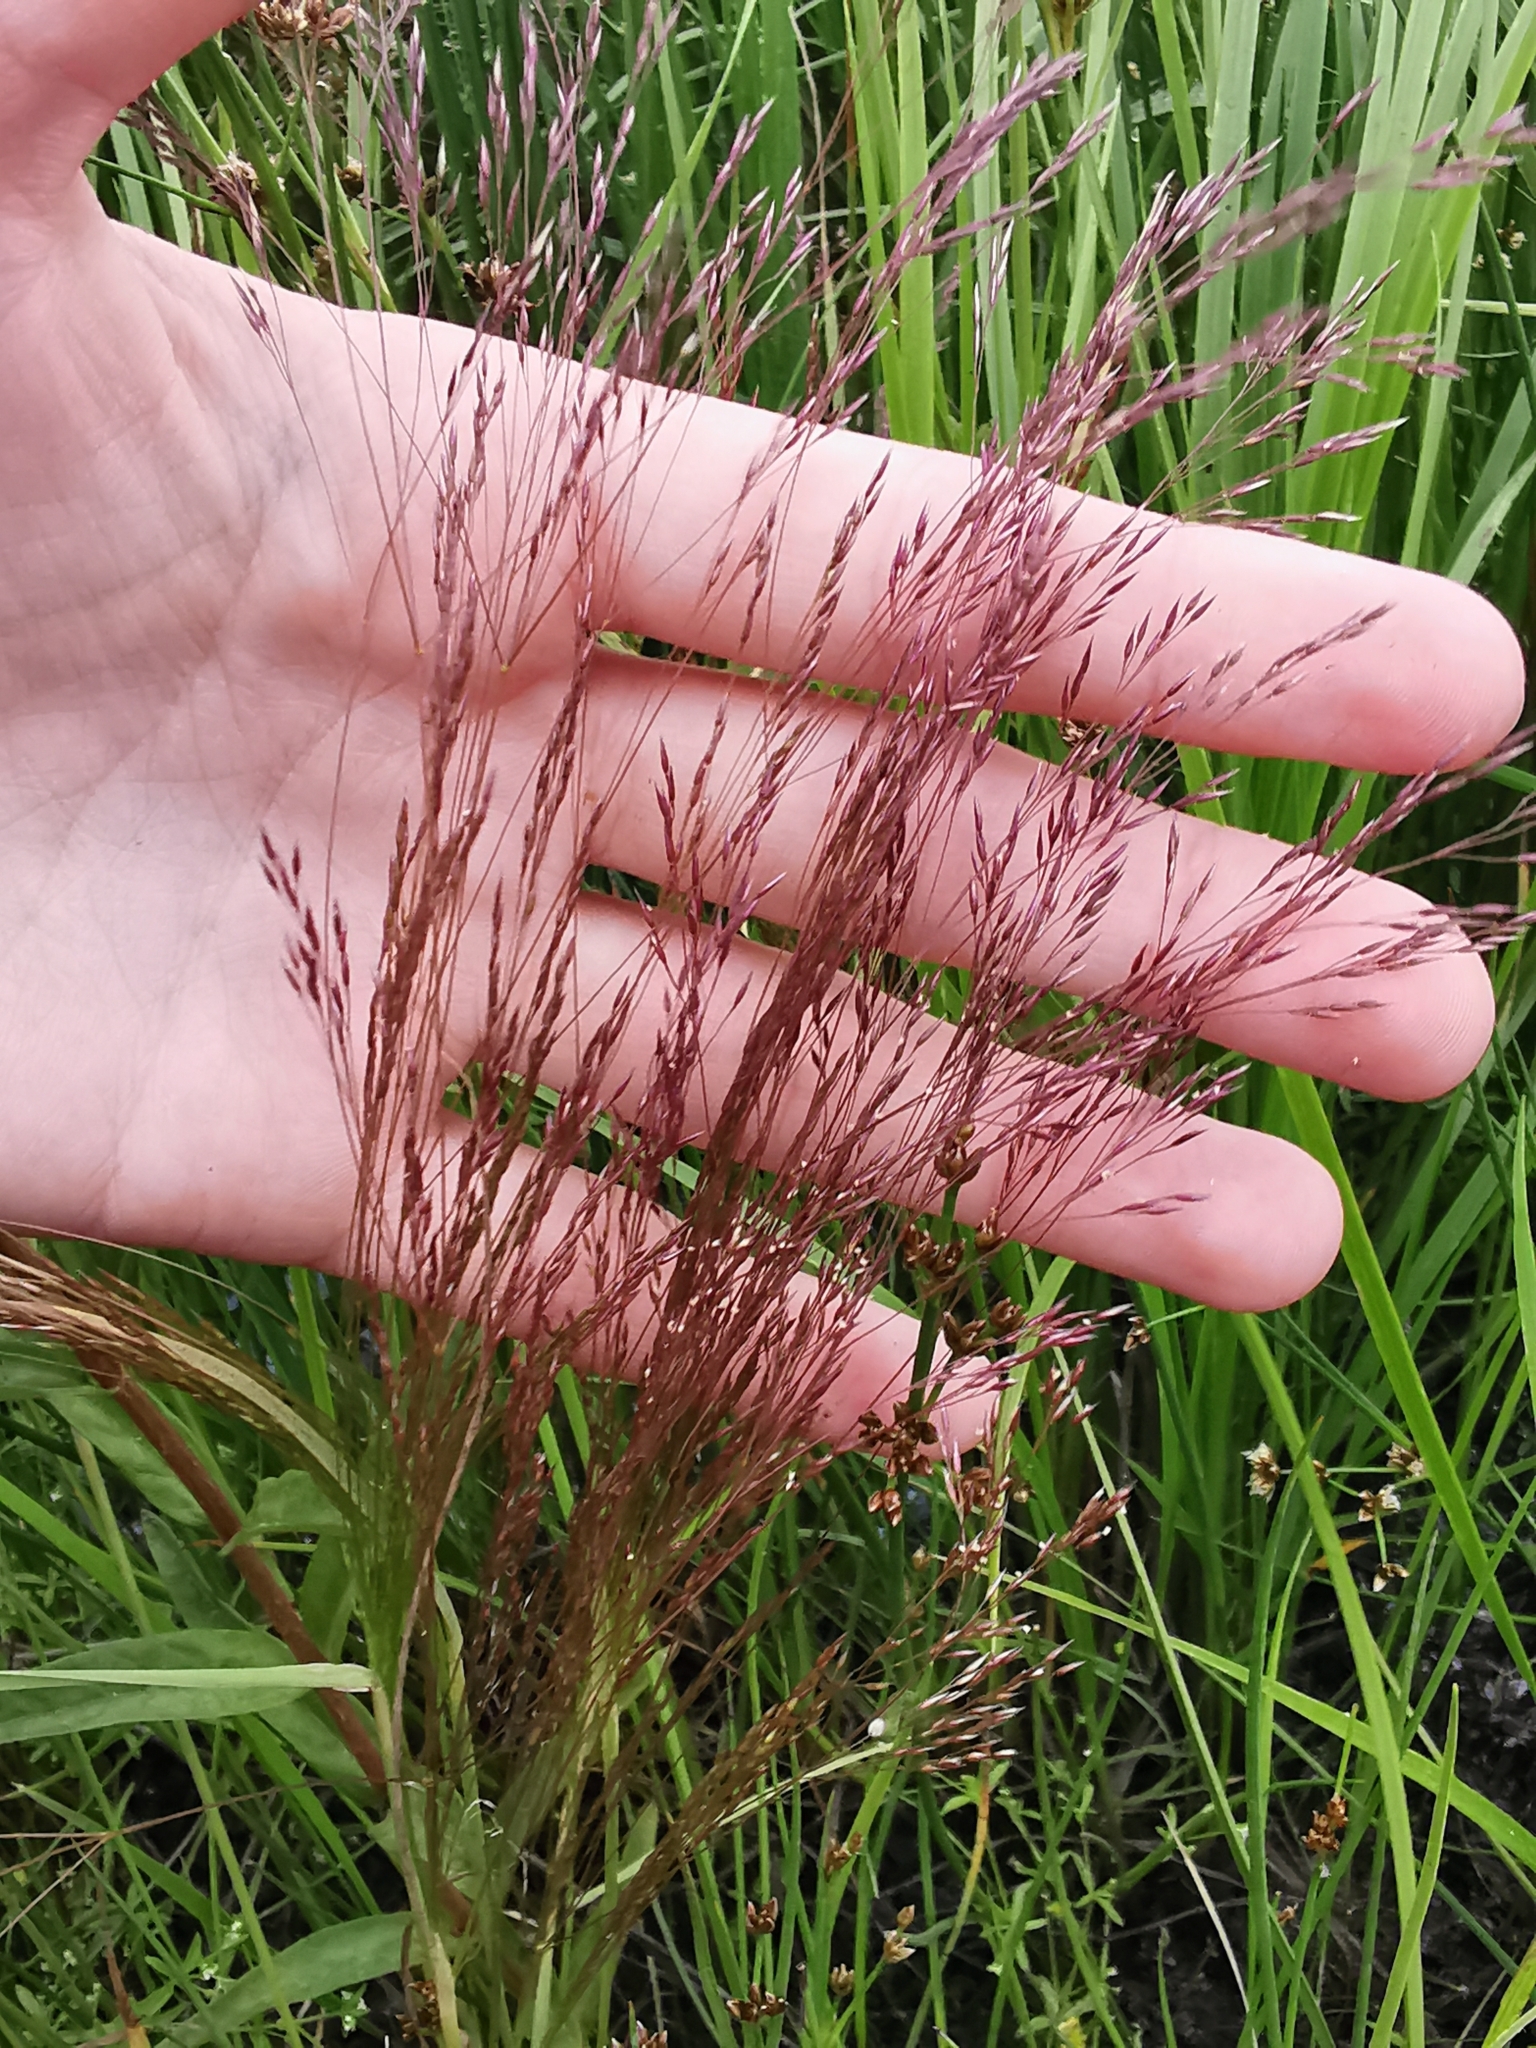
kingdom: Plantae
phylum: Tracheophyta
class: Liliopsida
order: Poales
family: Poaceae
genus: Agrostis
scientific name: Agrostis scabra
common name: Rough bent
